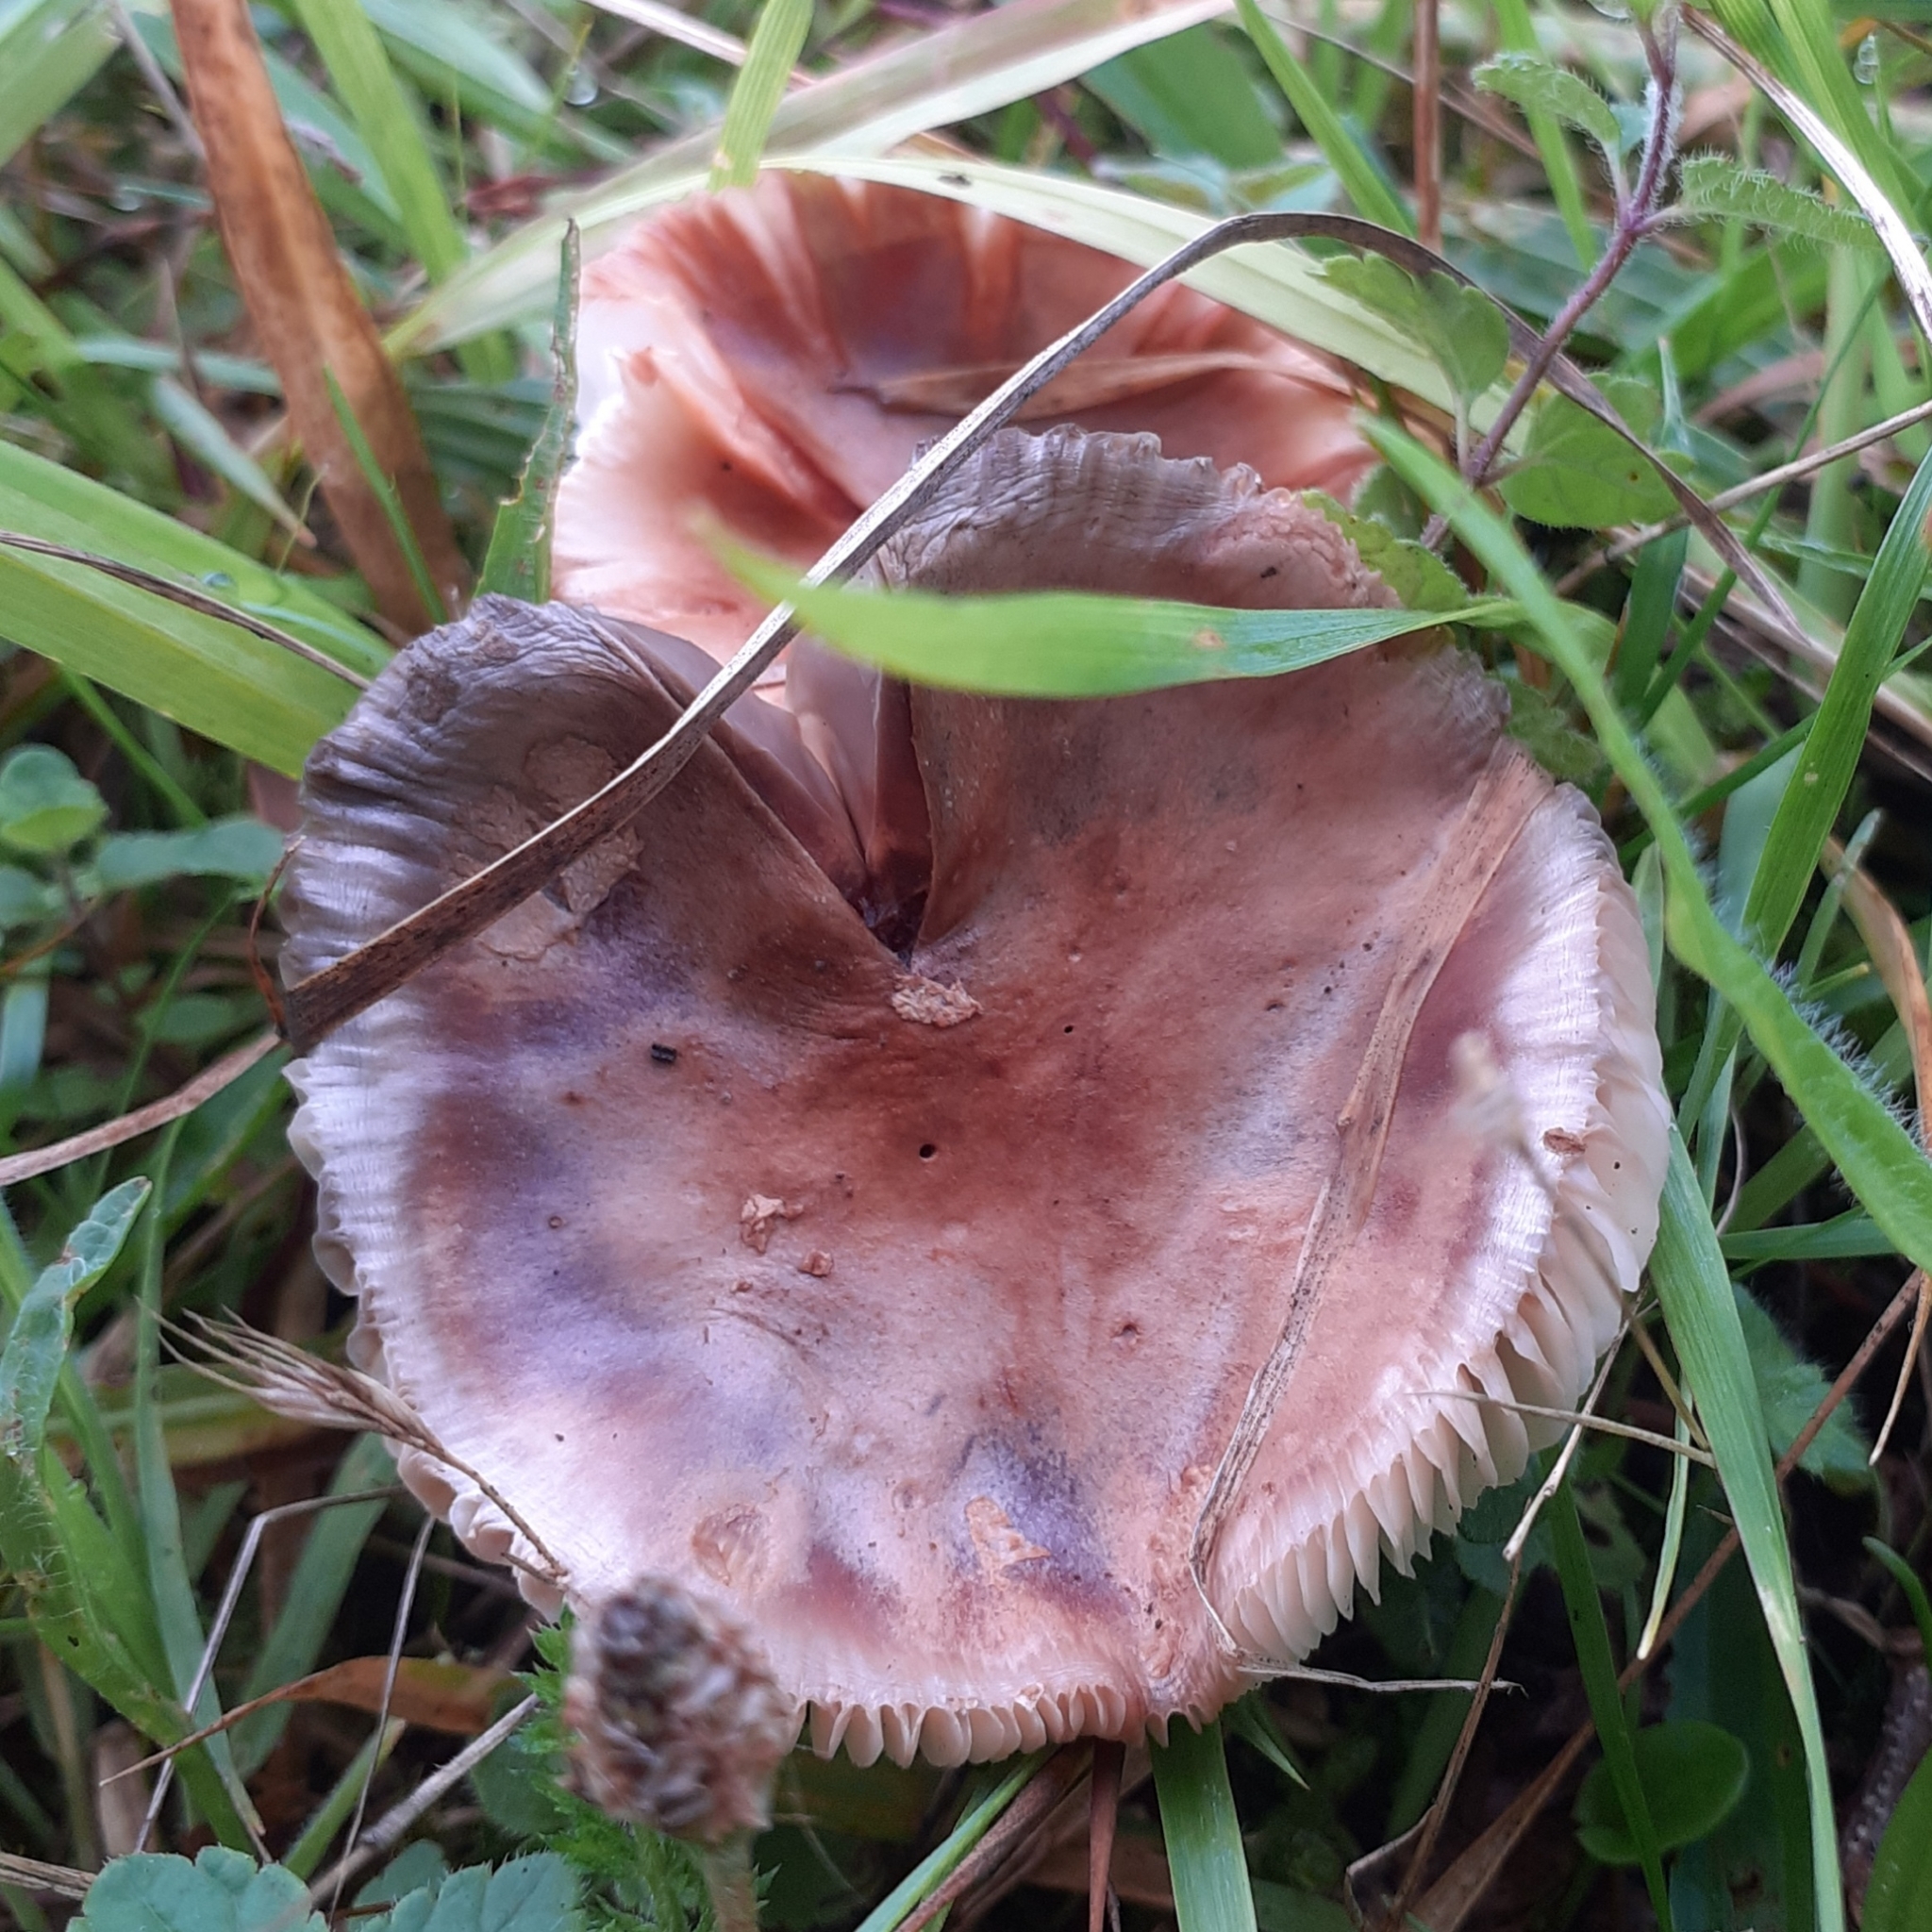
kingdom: Fungi
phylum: Basidiomycota
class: Agaricomycetes
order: Agaricales
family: Amanitaceae
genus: Amanita
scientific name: Amanita rubescens
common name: Blusher
